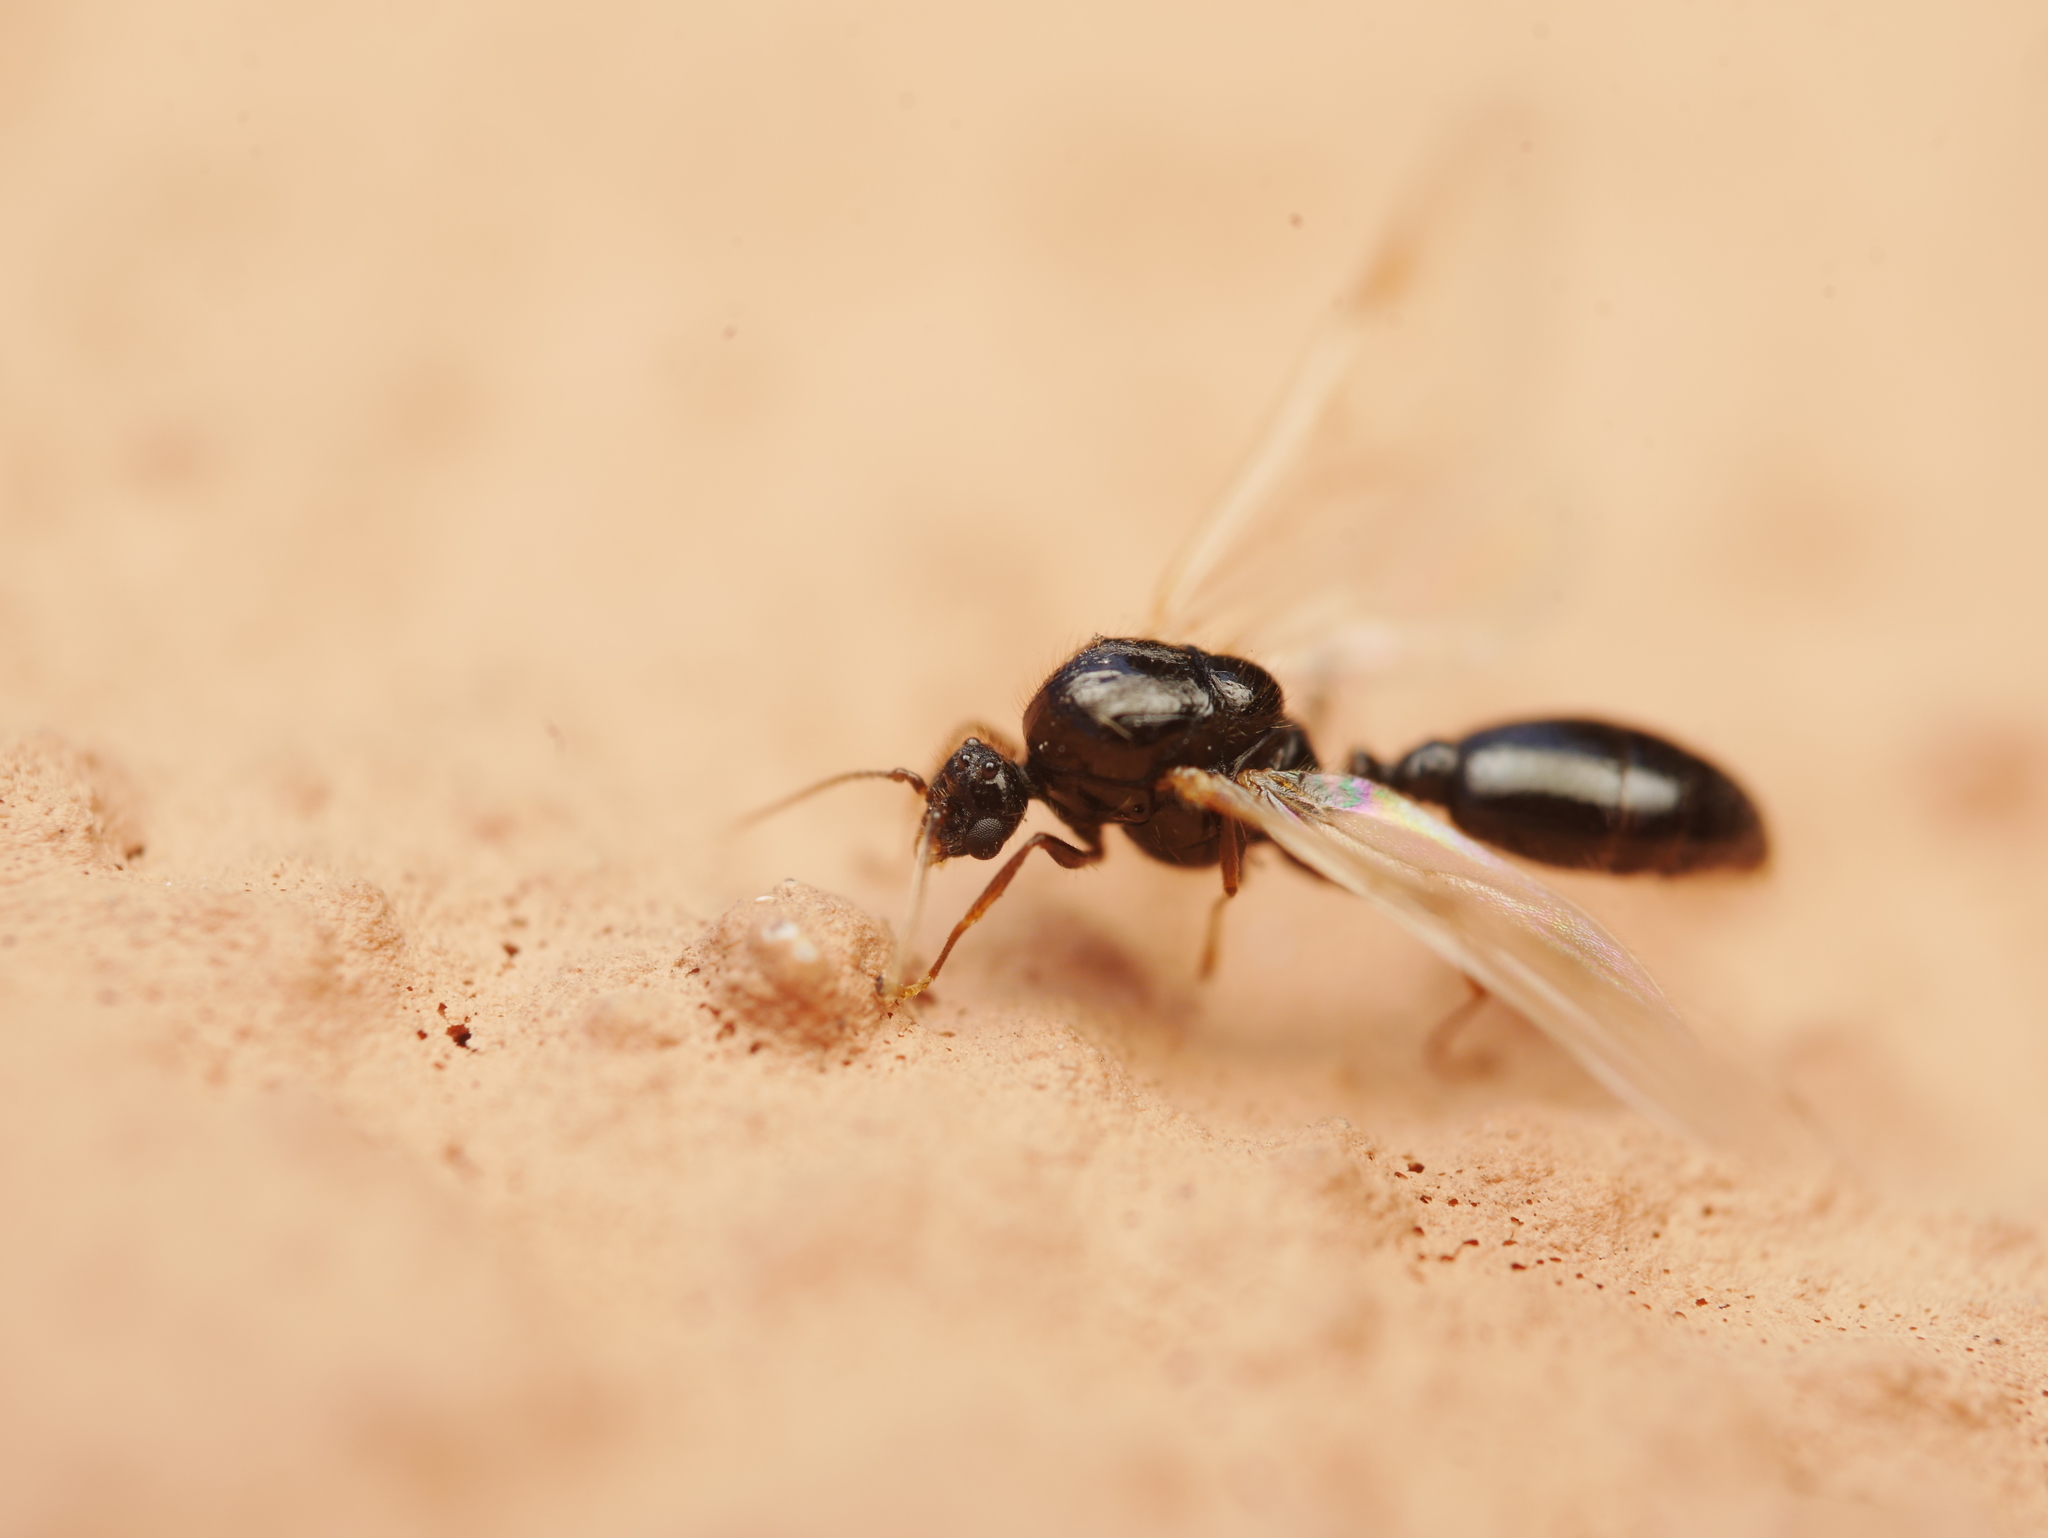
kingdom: Animalia
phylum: Arthropoda
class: Insecta
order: Hymenoptera
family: Formicidae
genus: Solenopsis
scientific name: Solenopsis fugax
